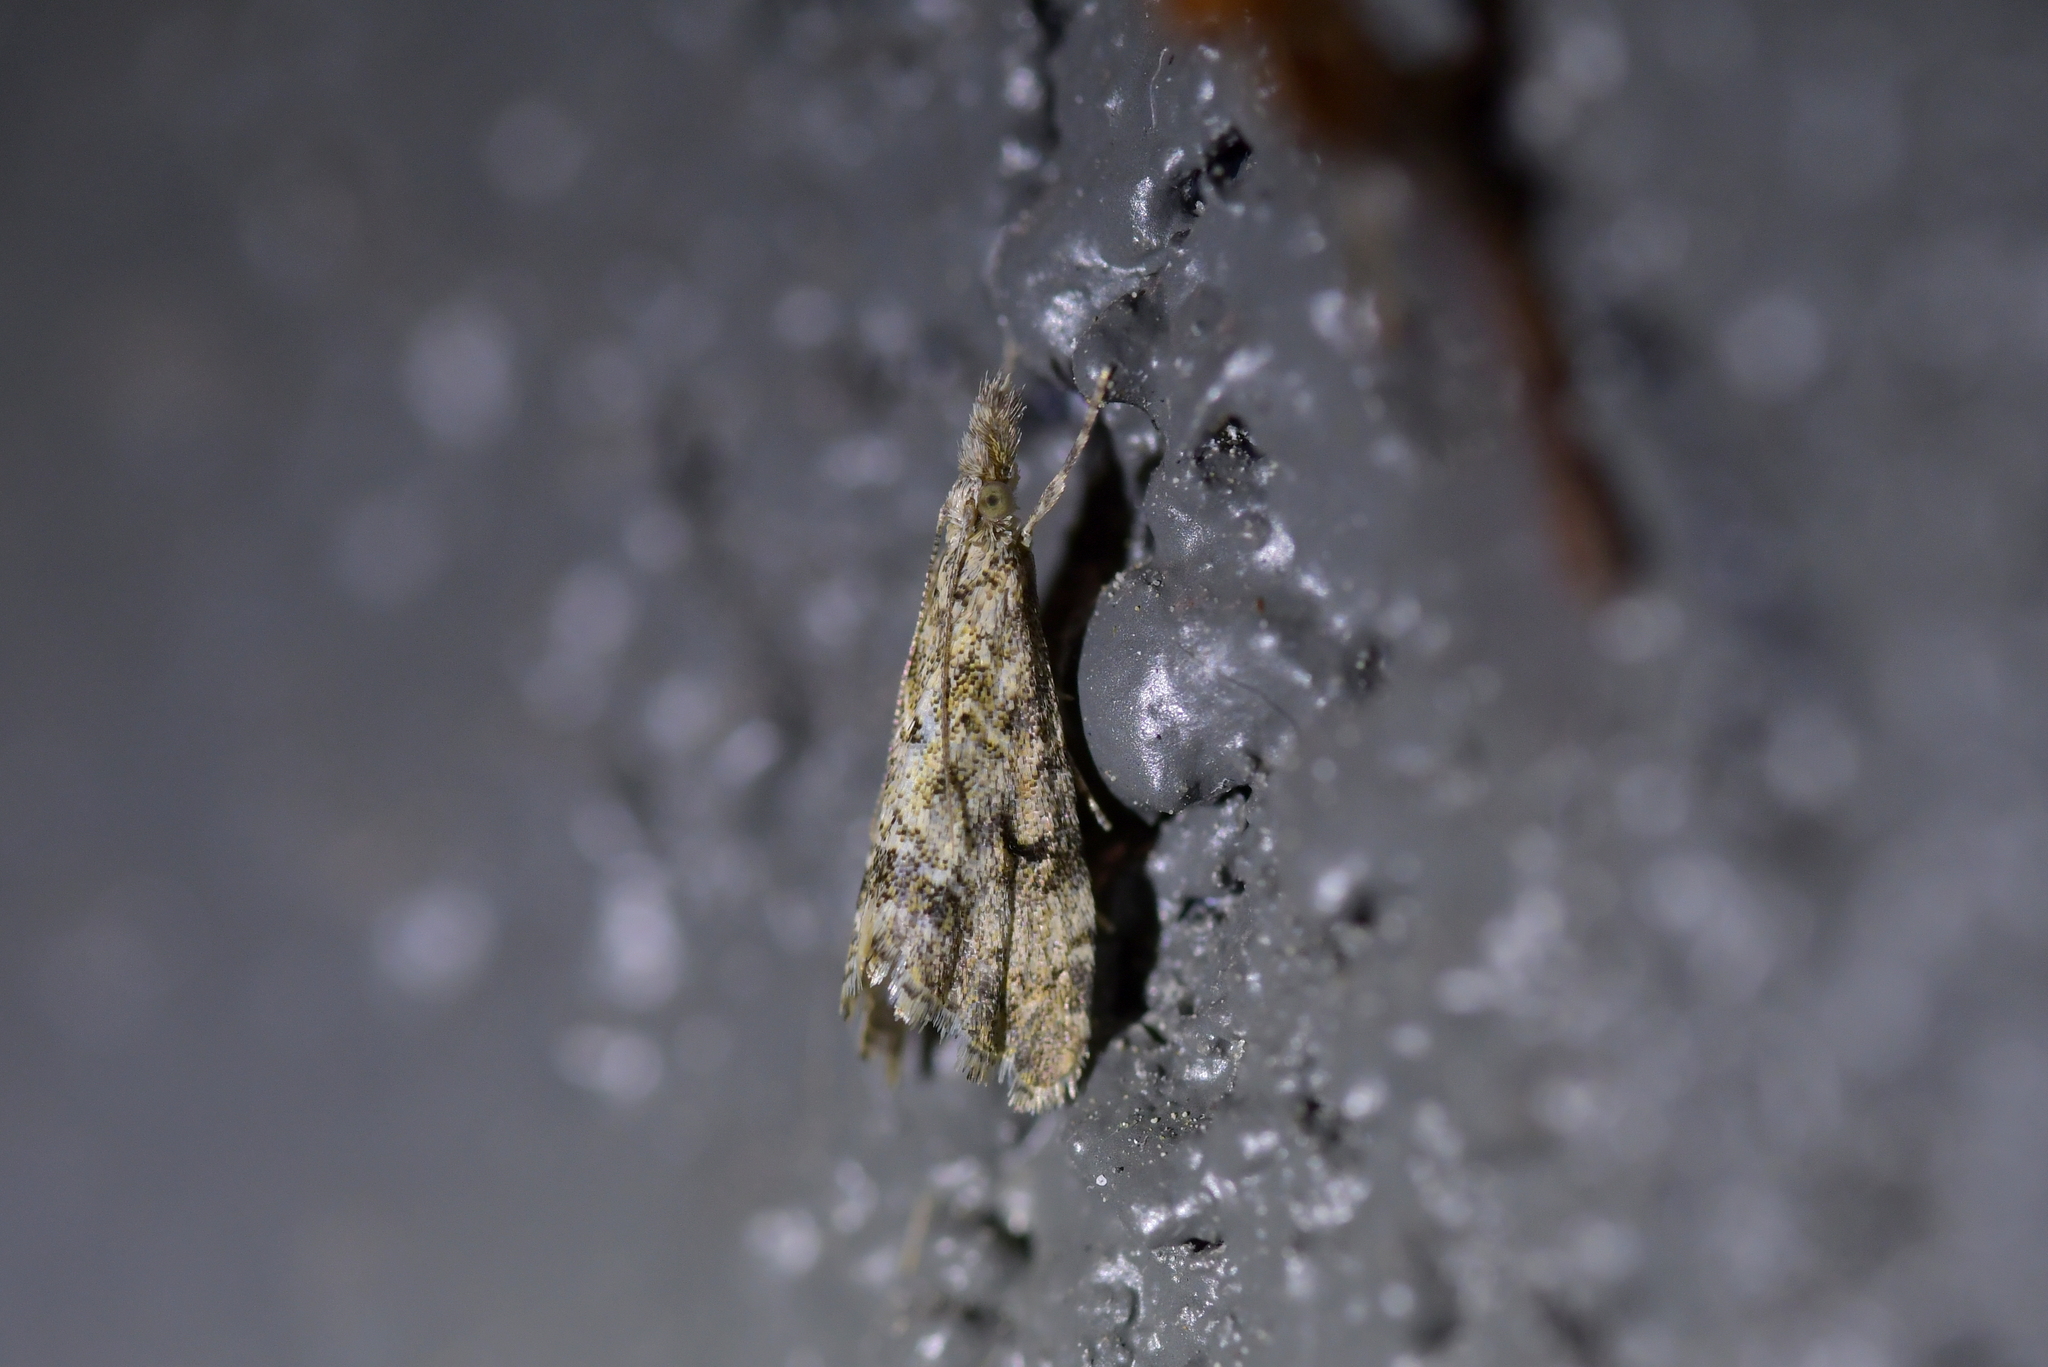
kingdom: Animalia
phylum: Arthropoda
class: Insecta
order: Lepidoptera
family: Crambidae
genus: Glaucocharis
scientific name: Glaucocharis elaina
